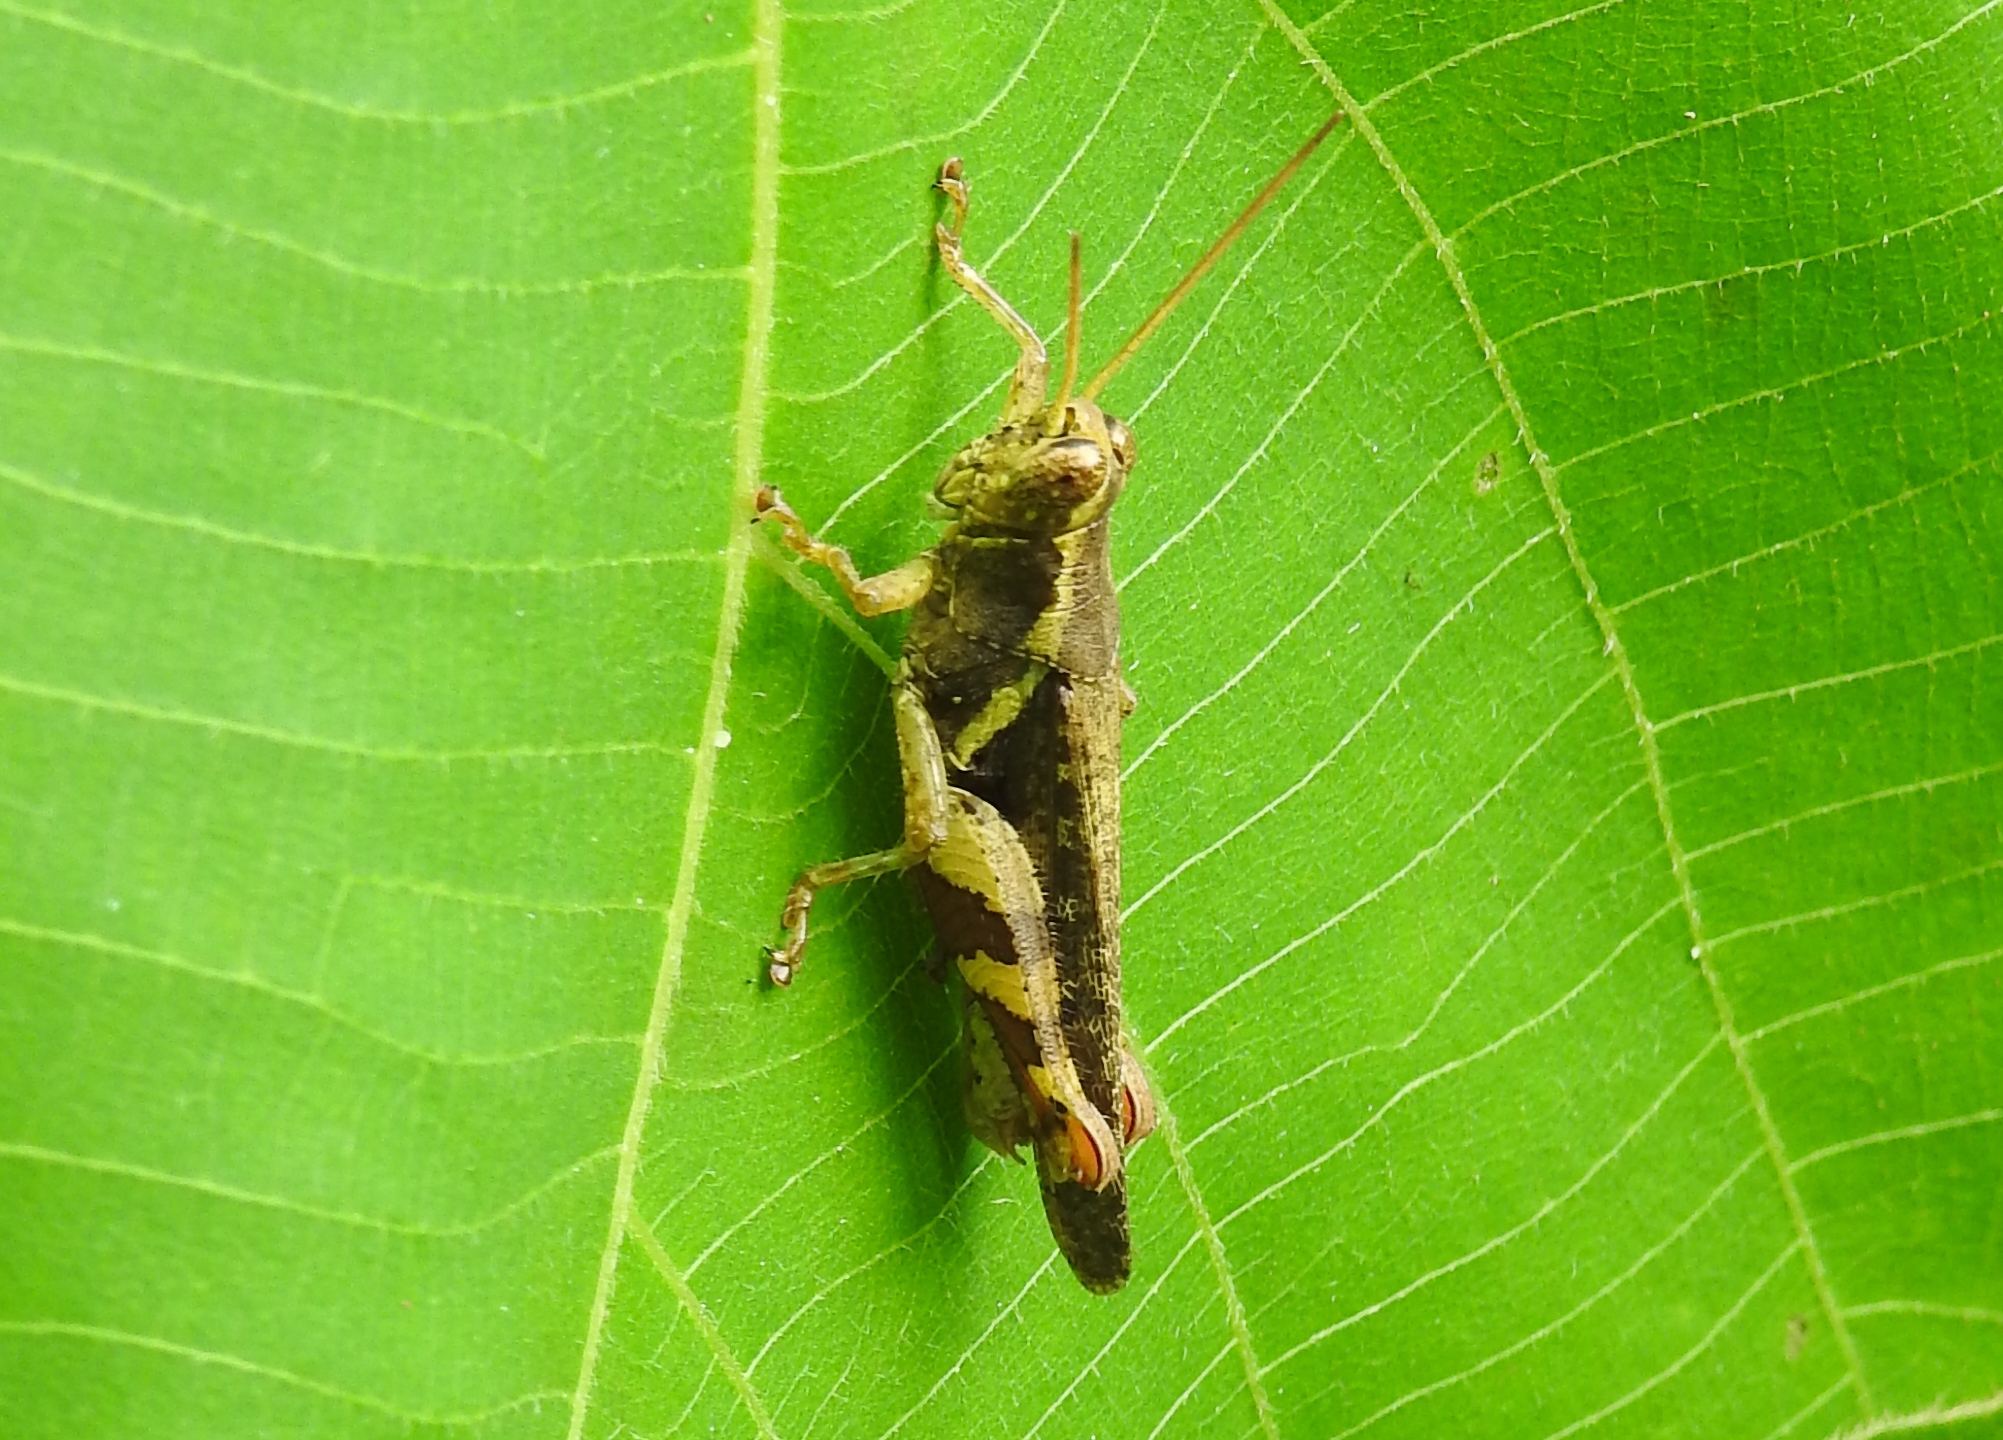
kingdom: Animalia
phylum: Arthropoda
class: Insecta
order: Orthoptera
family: Acrididae
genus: Xenocatantops
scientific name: Xenocatantops humile
